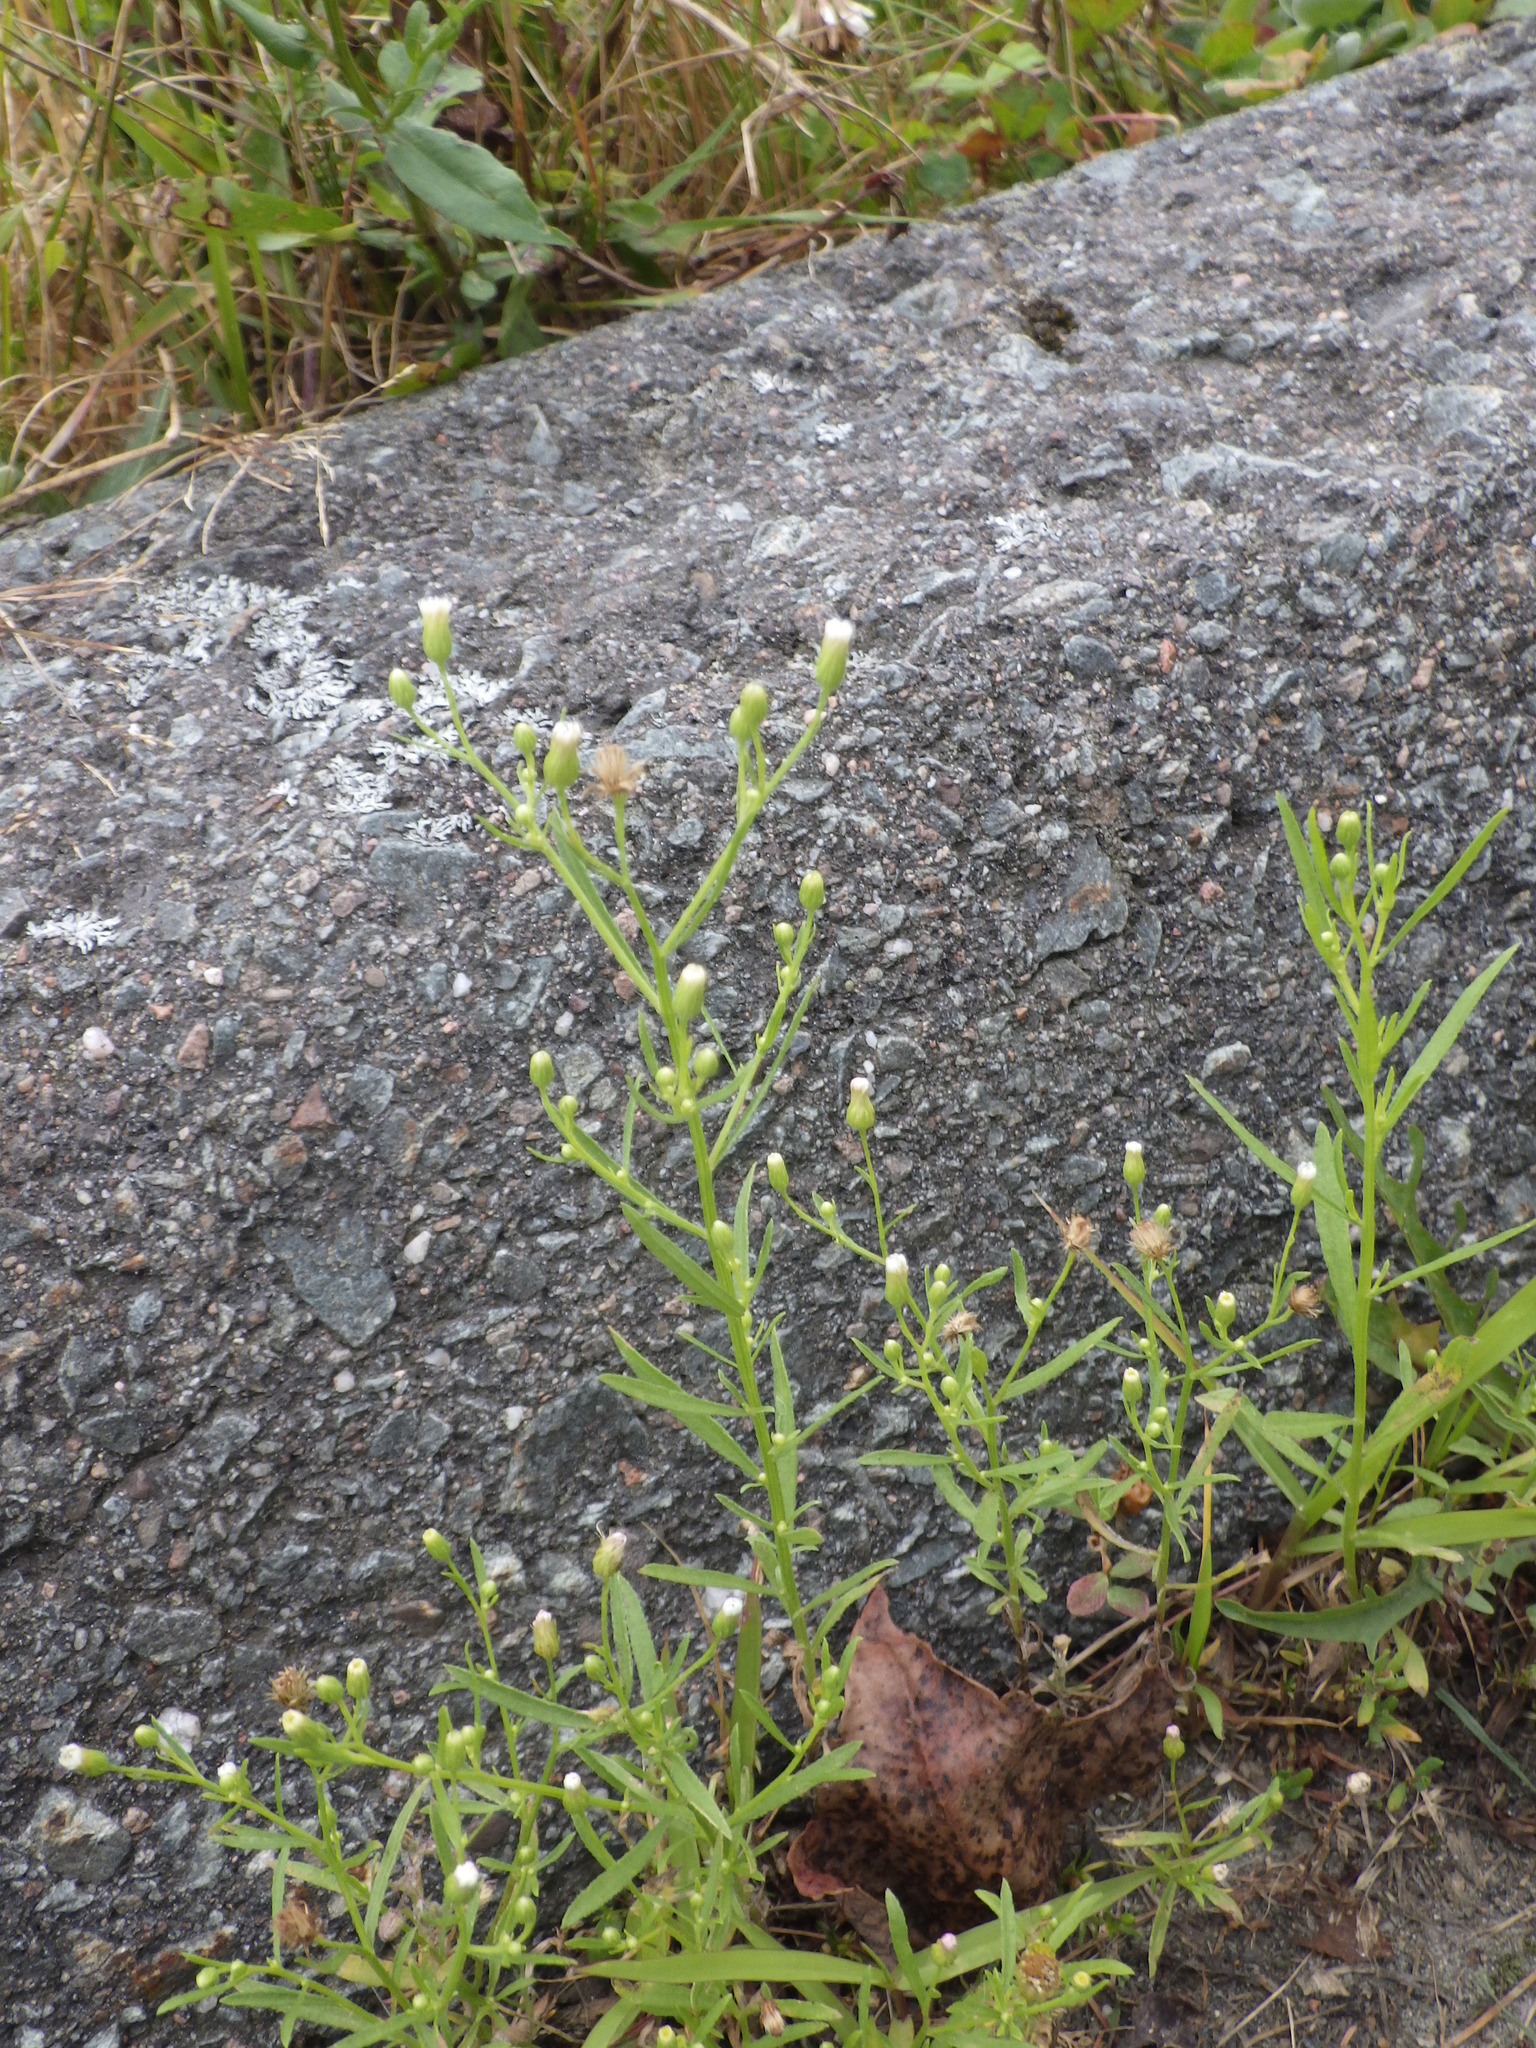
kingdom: Plantae
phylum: Tracheophyta
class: Magnoliopsida
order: Asterales
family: Asteraceae
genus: Erigeron
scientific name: Erigeron canadensis
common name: Canadian fleabane
